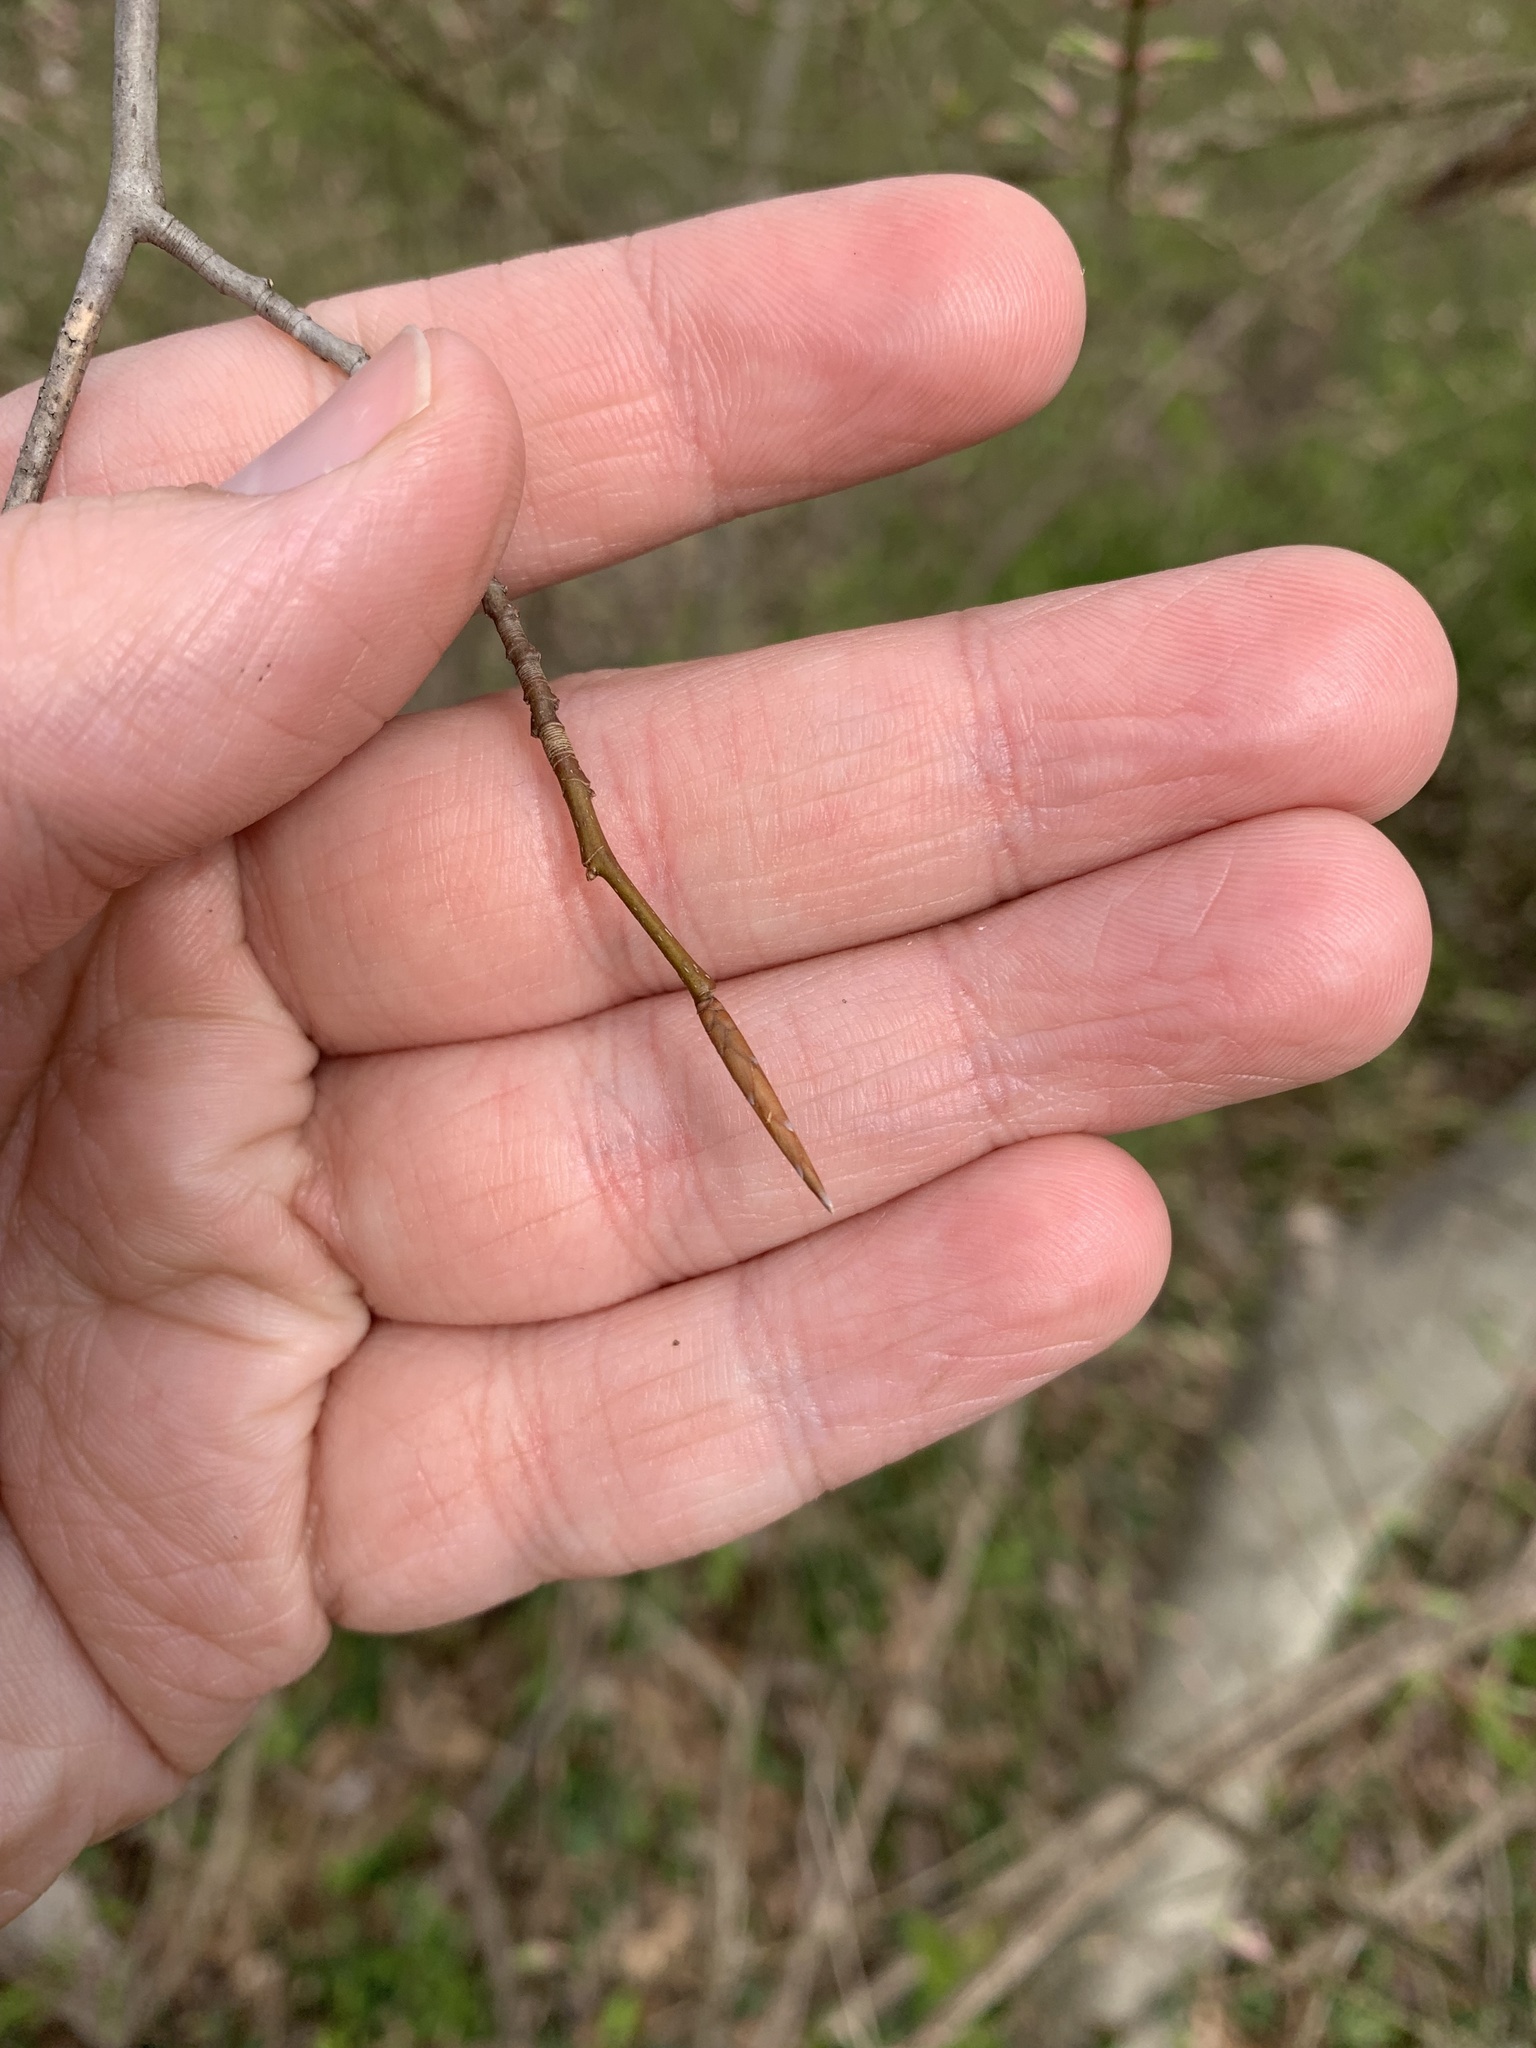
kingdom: Plantae
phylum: Tracheophyta
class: Magnoliopsida
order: Fagales
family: Fagaceae
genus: Fagus
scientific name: Fagus grandifolia
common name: American beech
